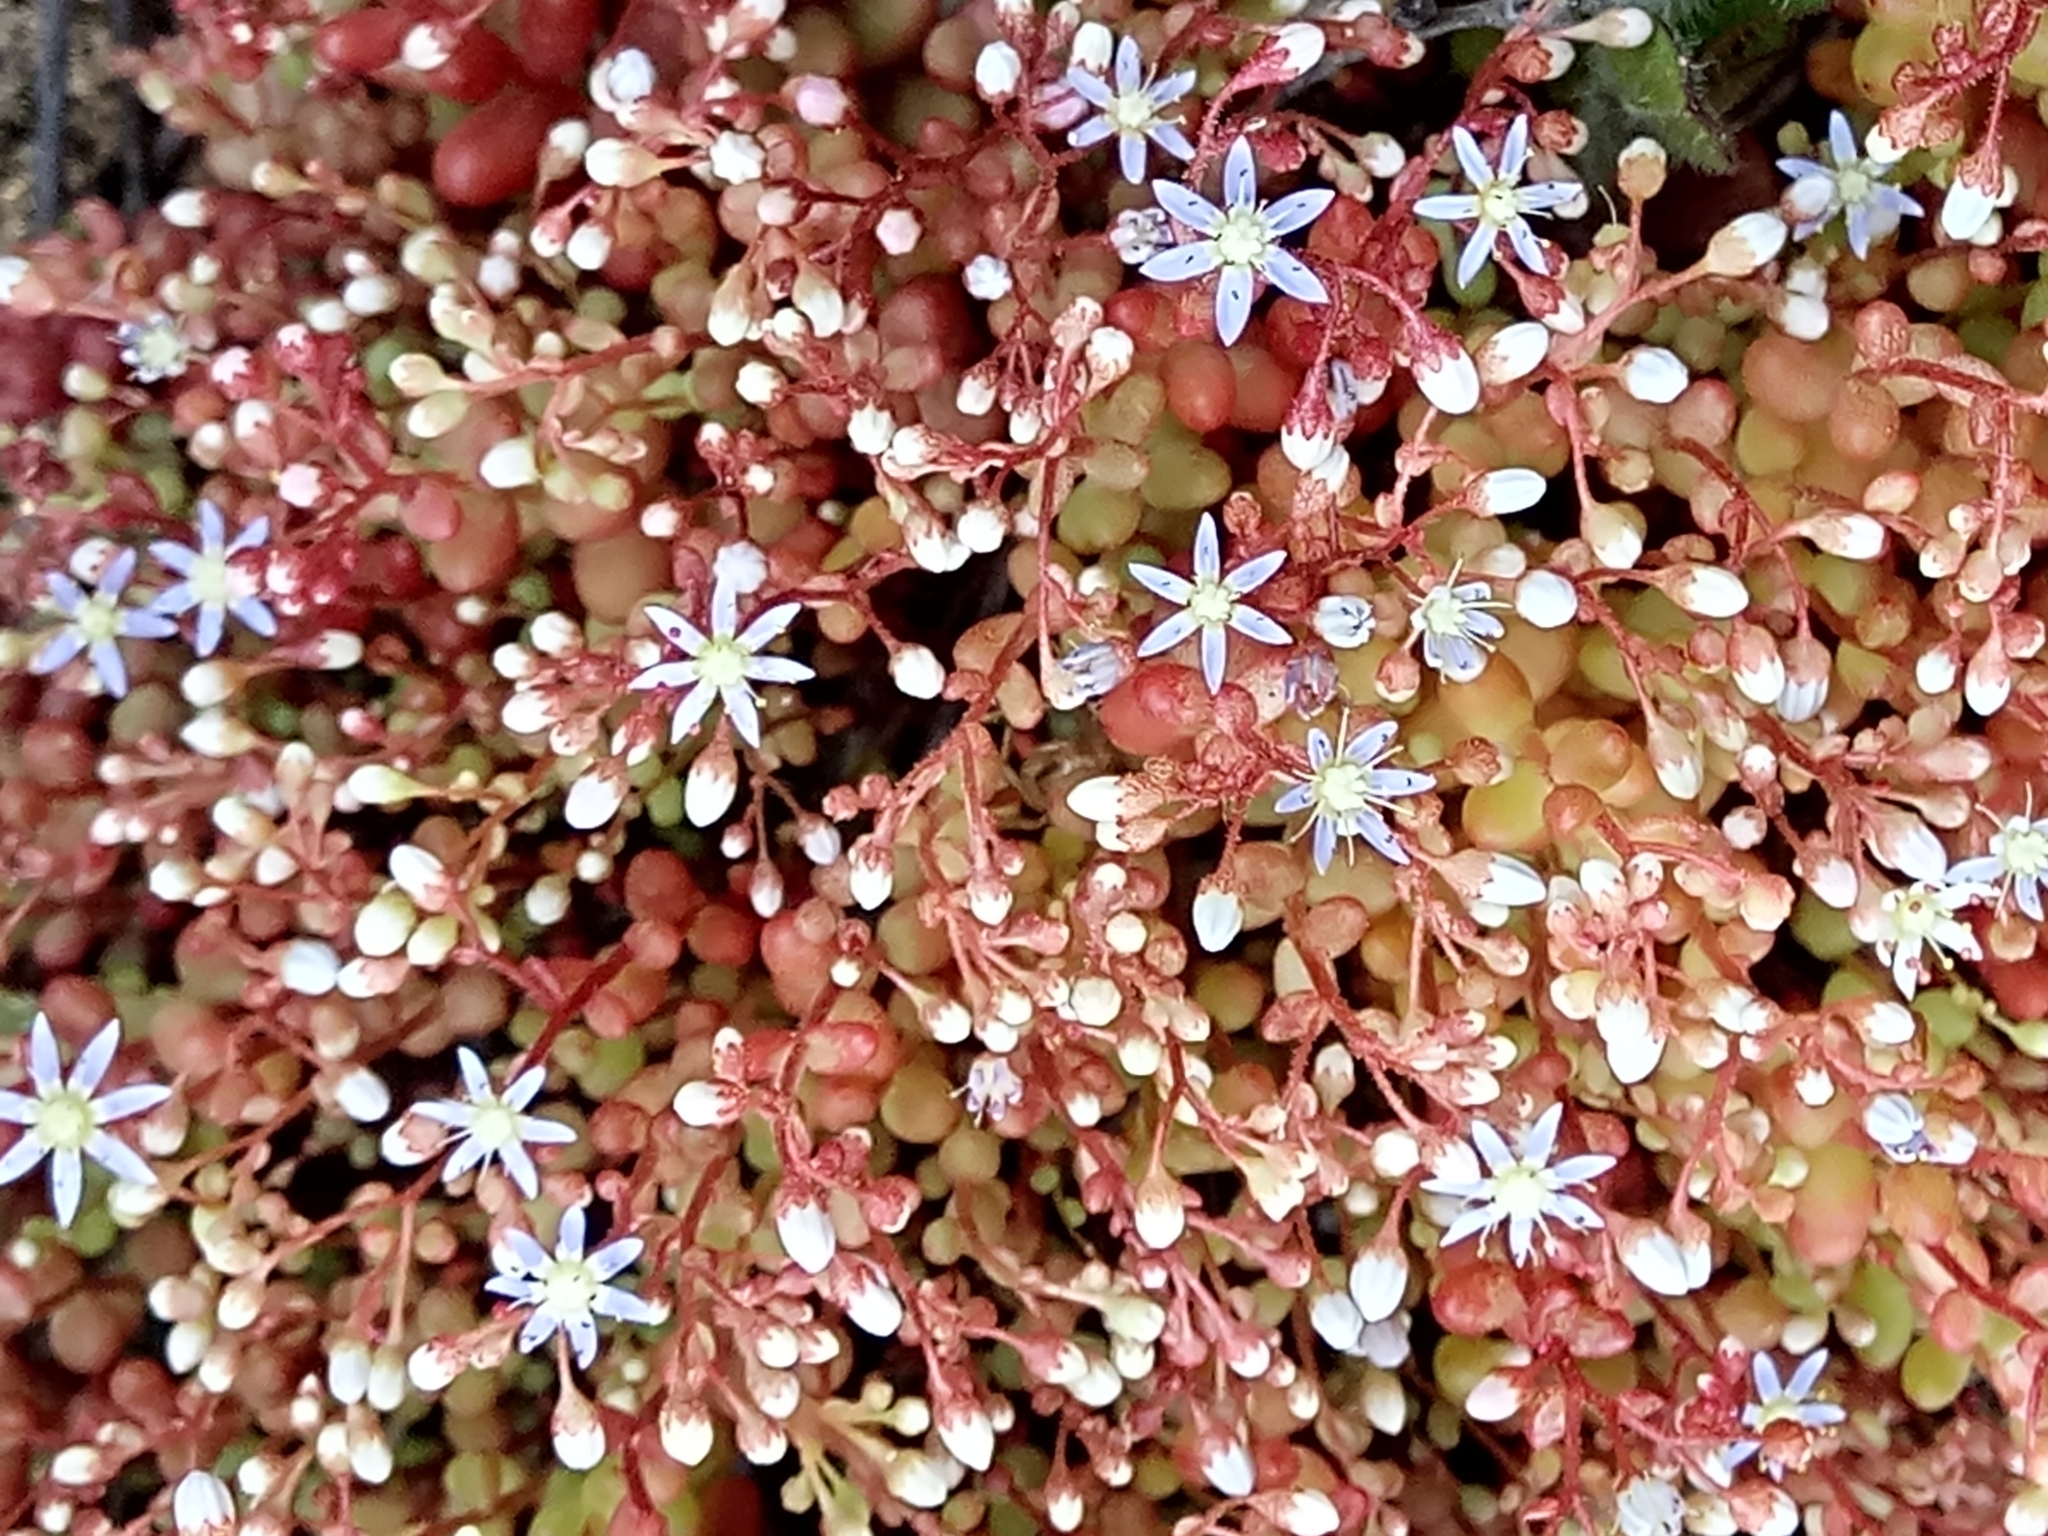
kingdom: Plantae
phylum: Tracheophyta
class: Magnoliopsida
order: Saxifragales
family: Crassulaceae
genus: Sedum
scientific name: Sedum caeruleum
